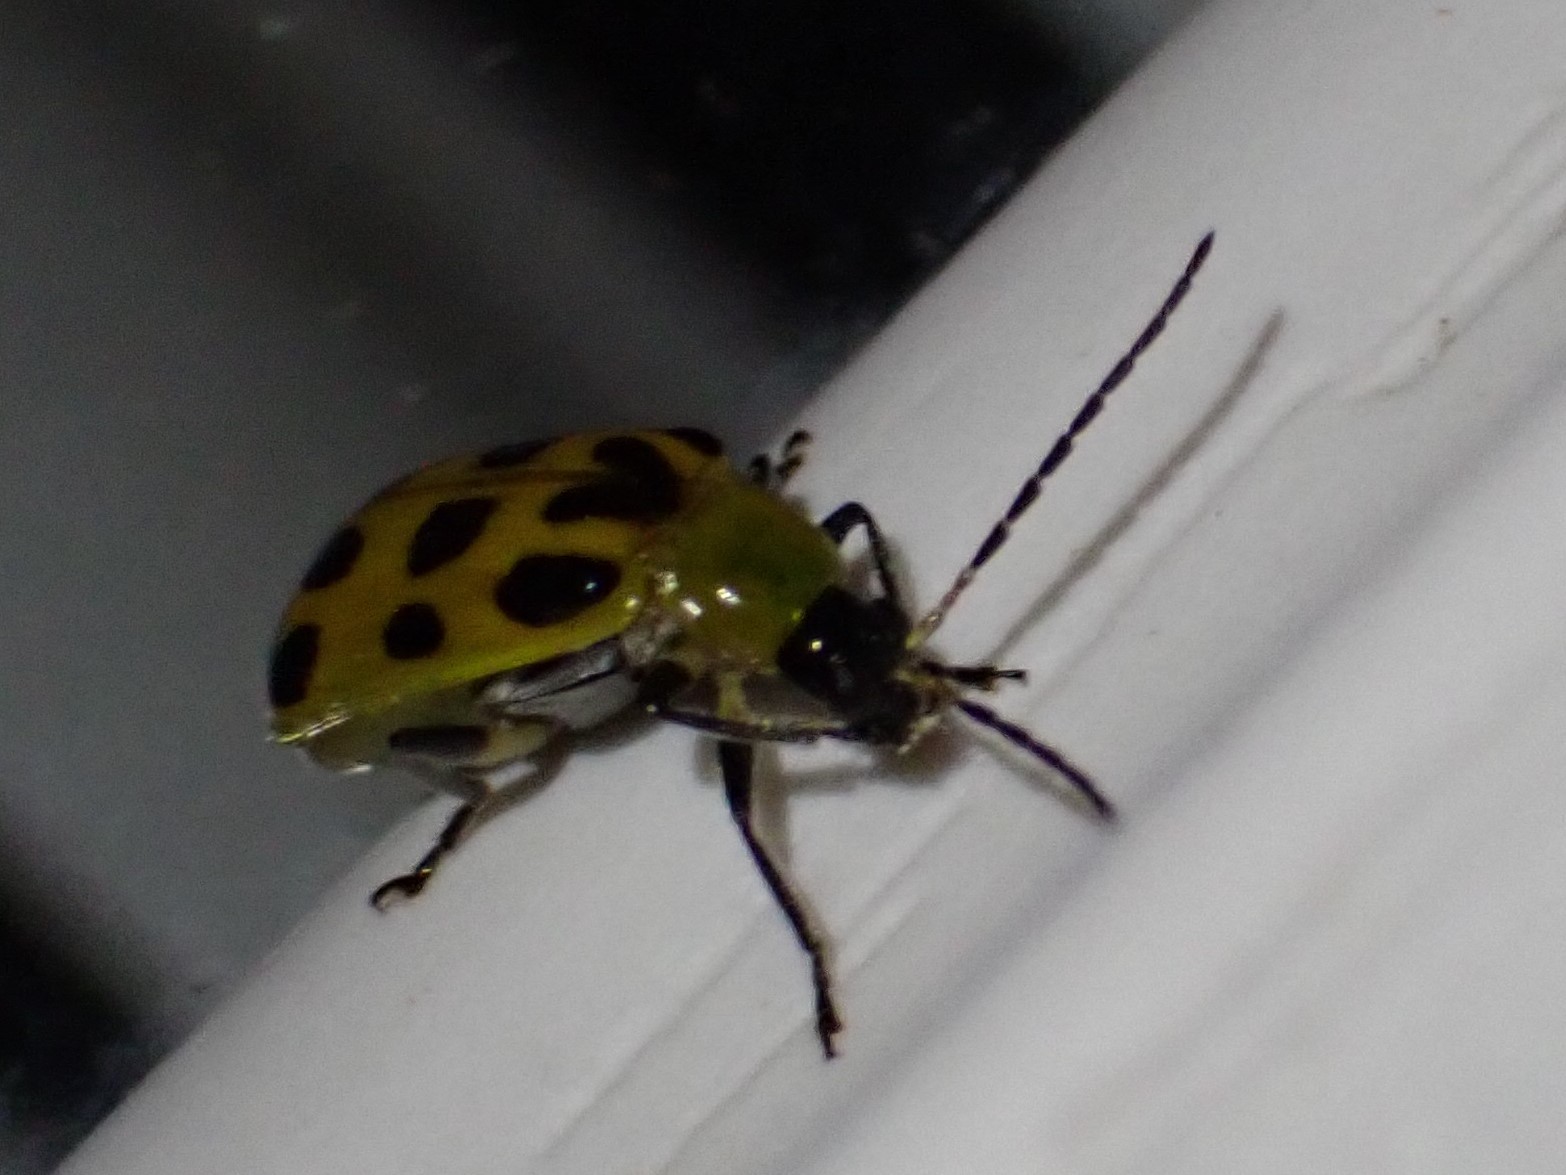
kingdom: Animalia
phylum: Arthropoda
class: Insecta
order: Coleoptera
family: Chrysomelidae
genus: Diabrotica
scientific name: Diabrotica undecimpunctata
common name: Spotted cucumber beetle
